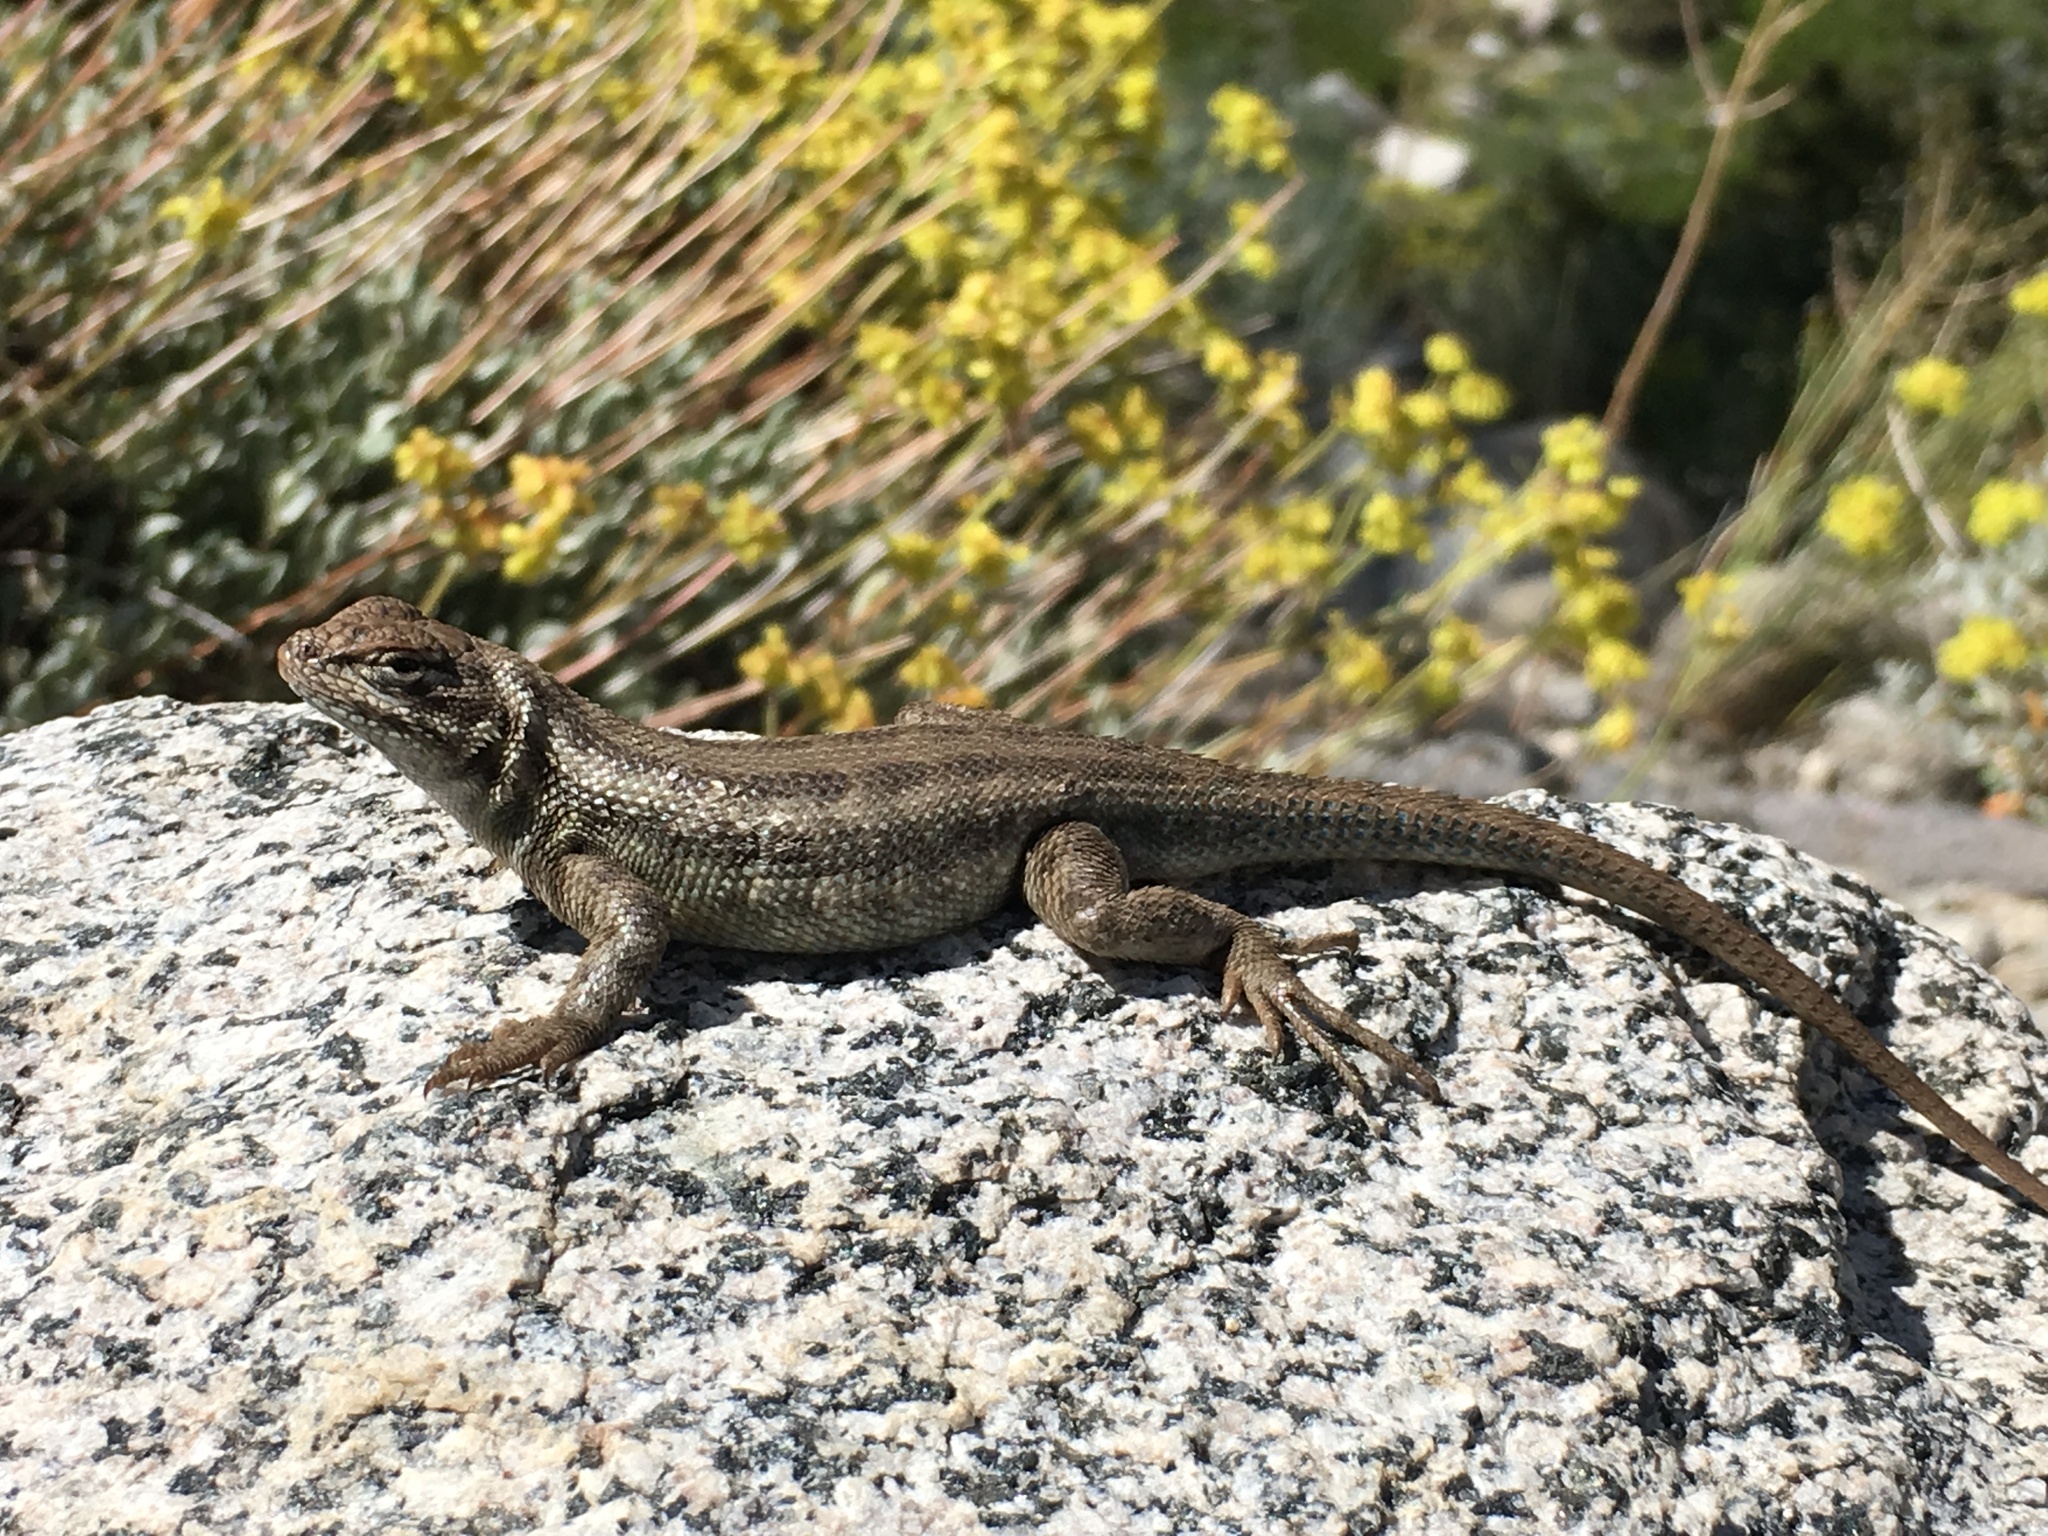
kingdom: Animalia
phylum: Chordata
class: Squamata
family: Phrynosomatidae
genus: Sceloporus
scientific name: Sceloporus graciosus
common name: Sagebrush lizard
